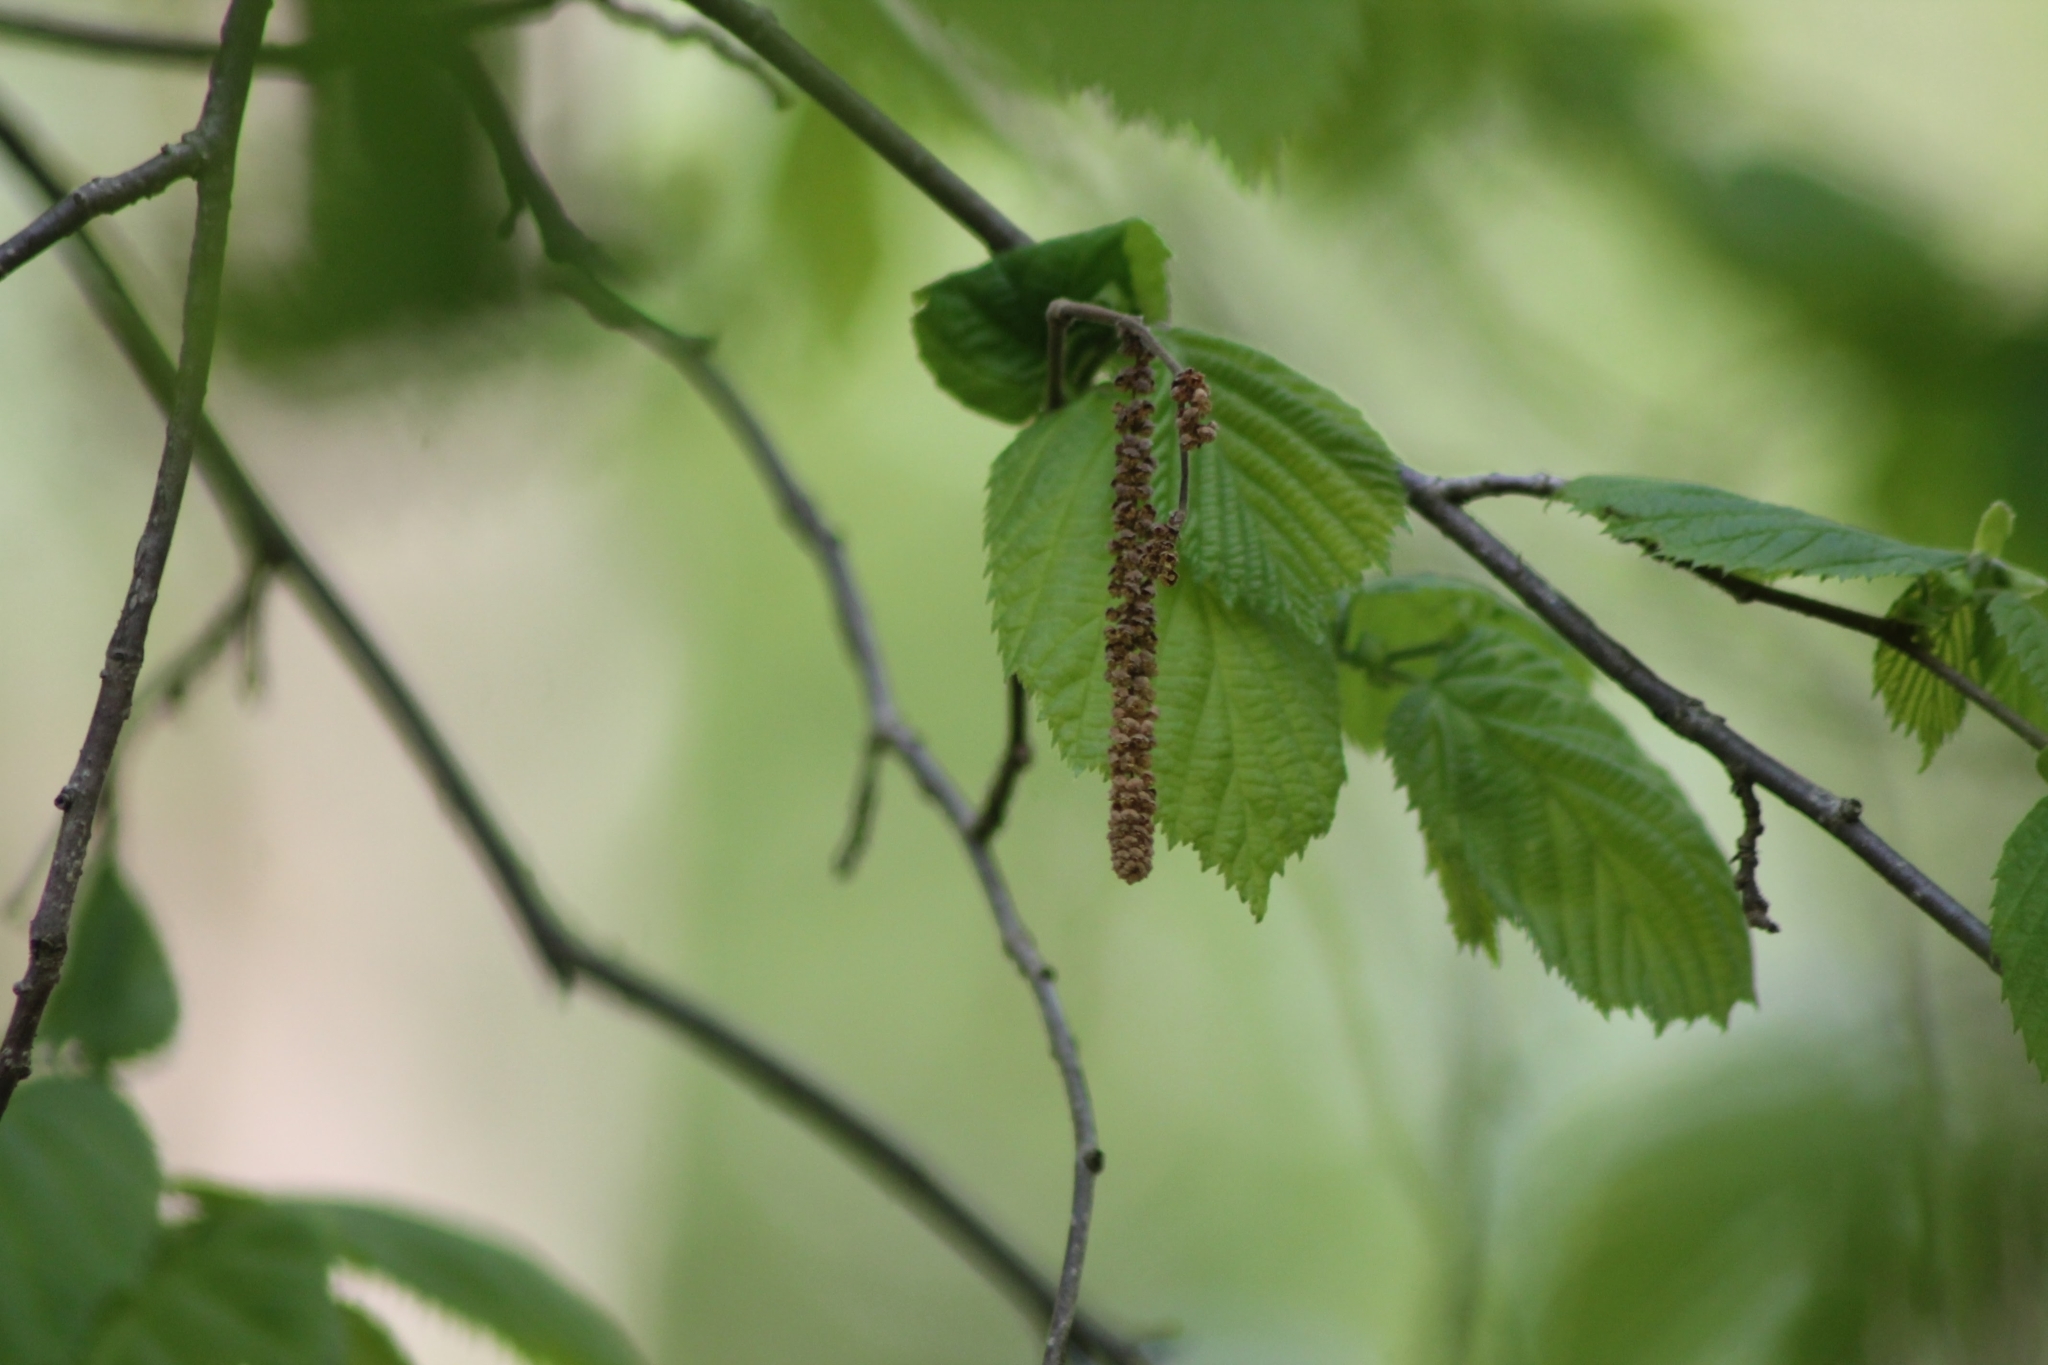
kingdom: Plantae
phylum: Tracheophyta
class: Magnoliopsida
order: Fagales
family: Betulaceae
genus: Corylus
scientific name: Corylus avellana
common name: European hazel
